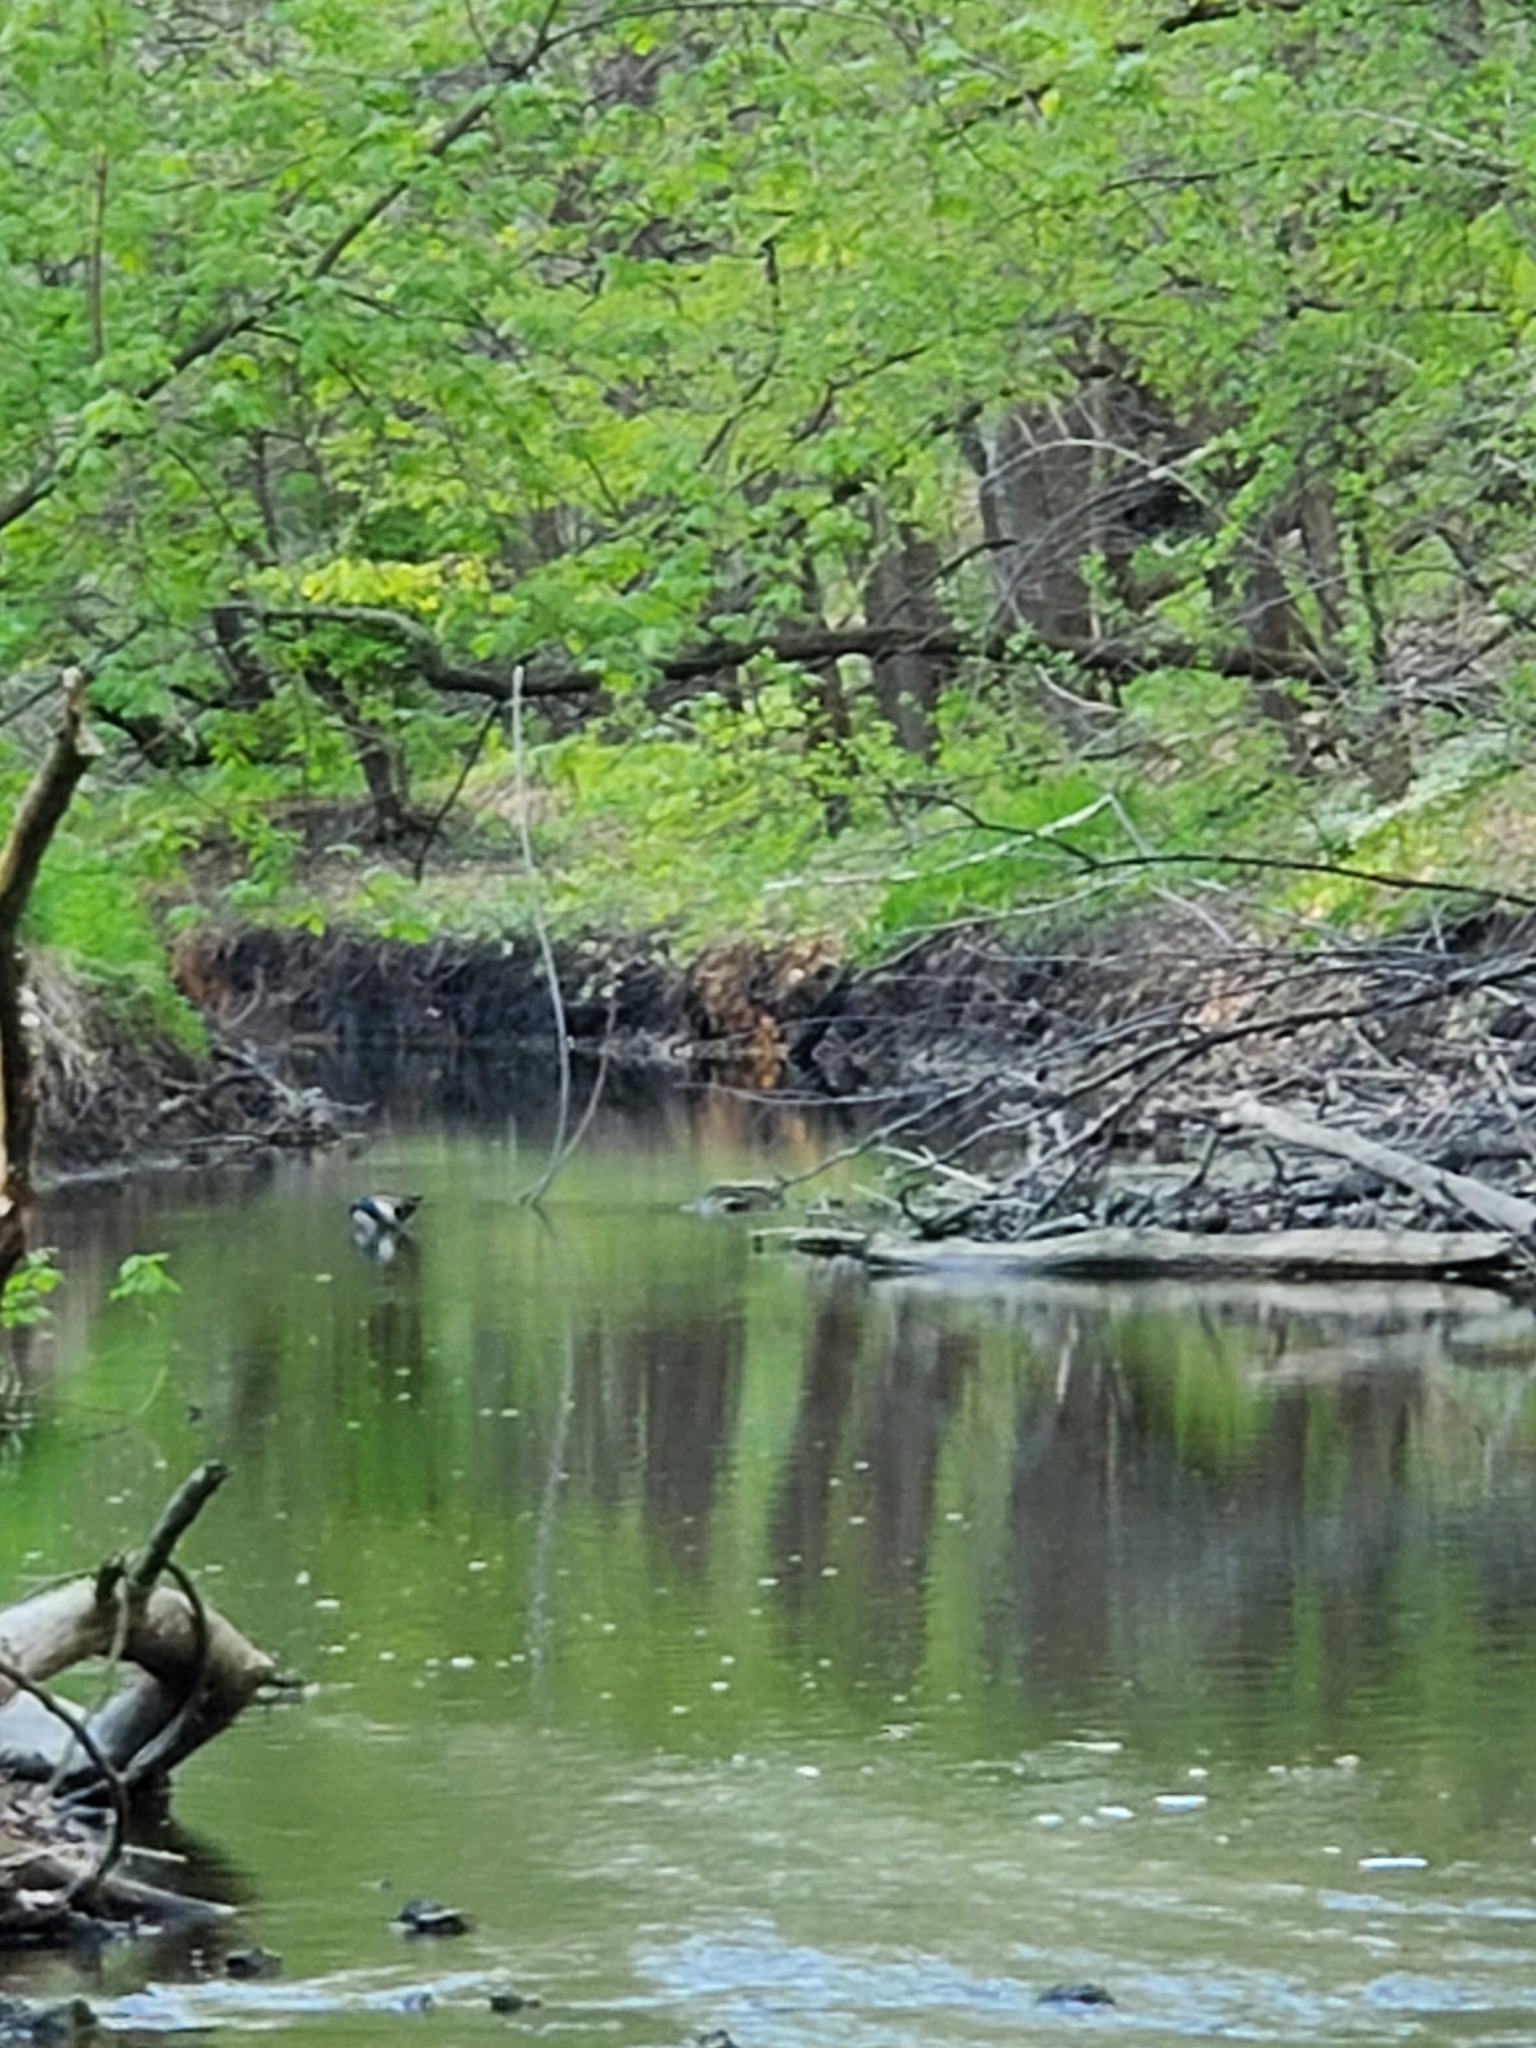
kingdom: Animalia
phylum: Chordata
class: Aves
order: Anseriformes
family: Anatidae
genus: Anas
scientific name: Anas platyrhynchos
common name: Mallard
